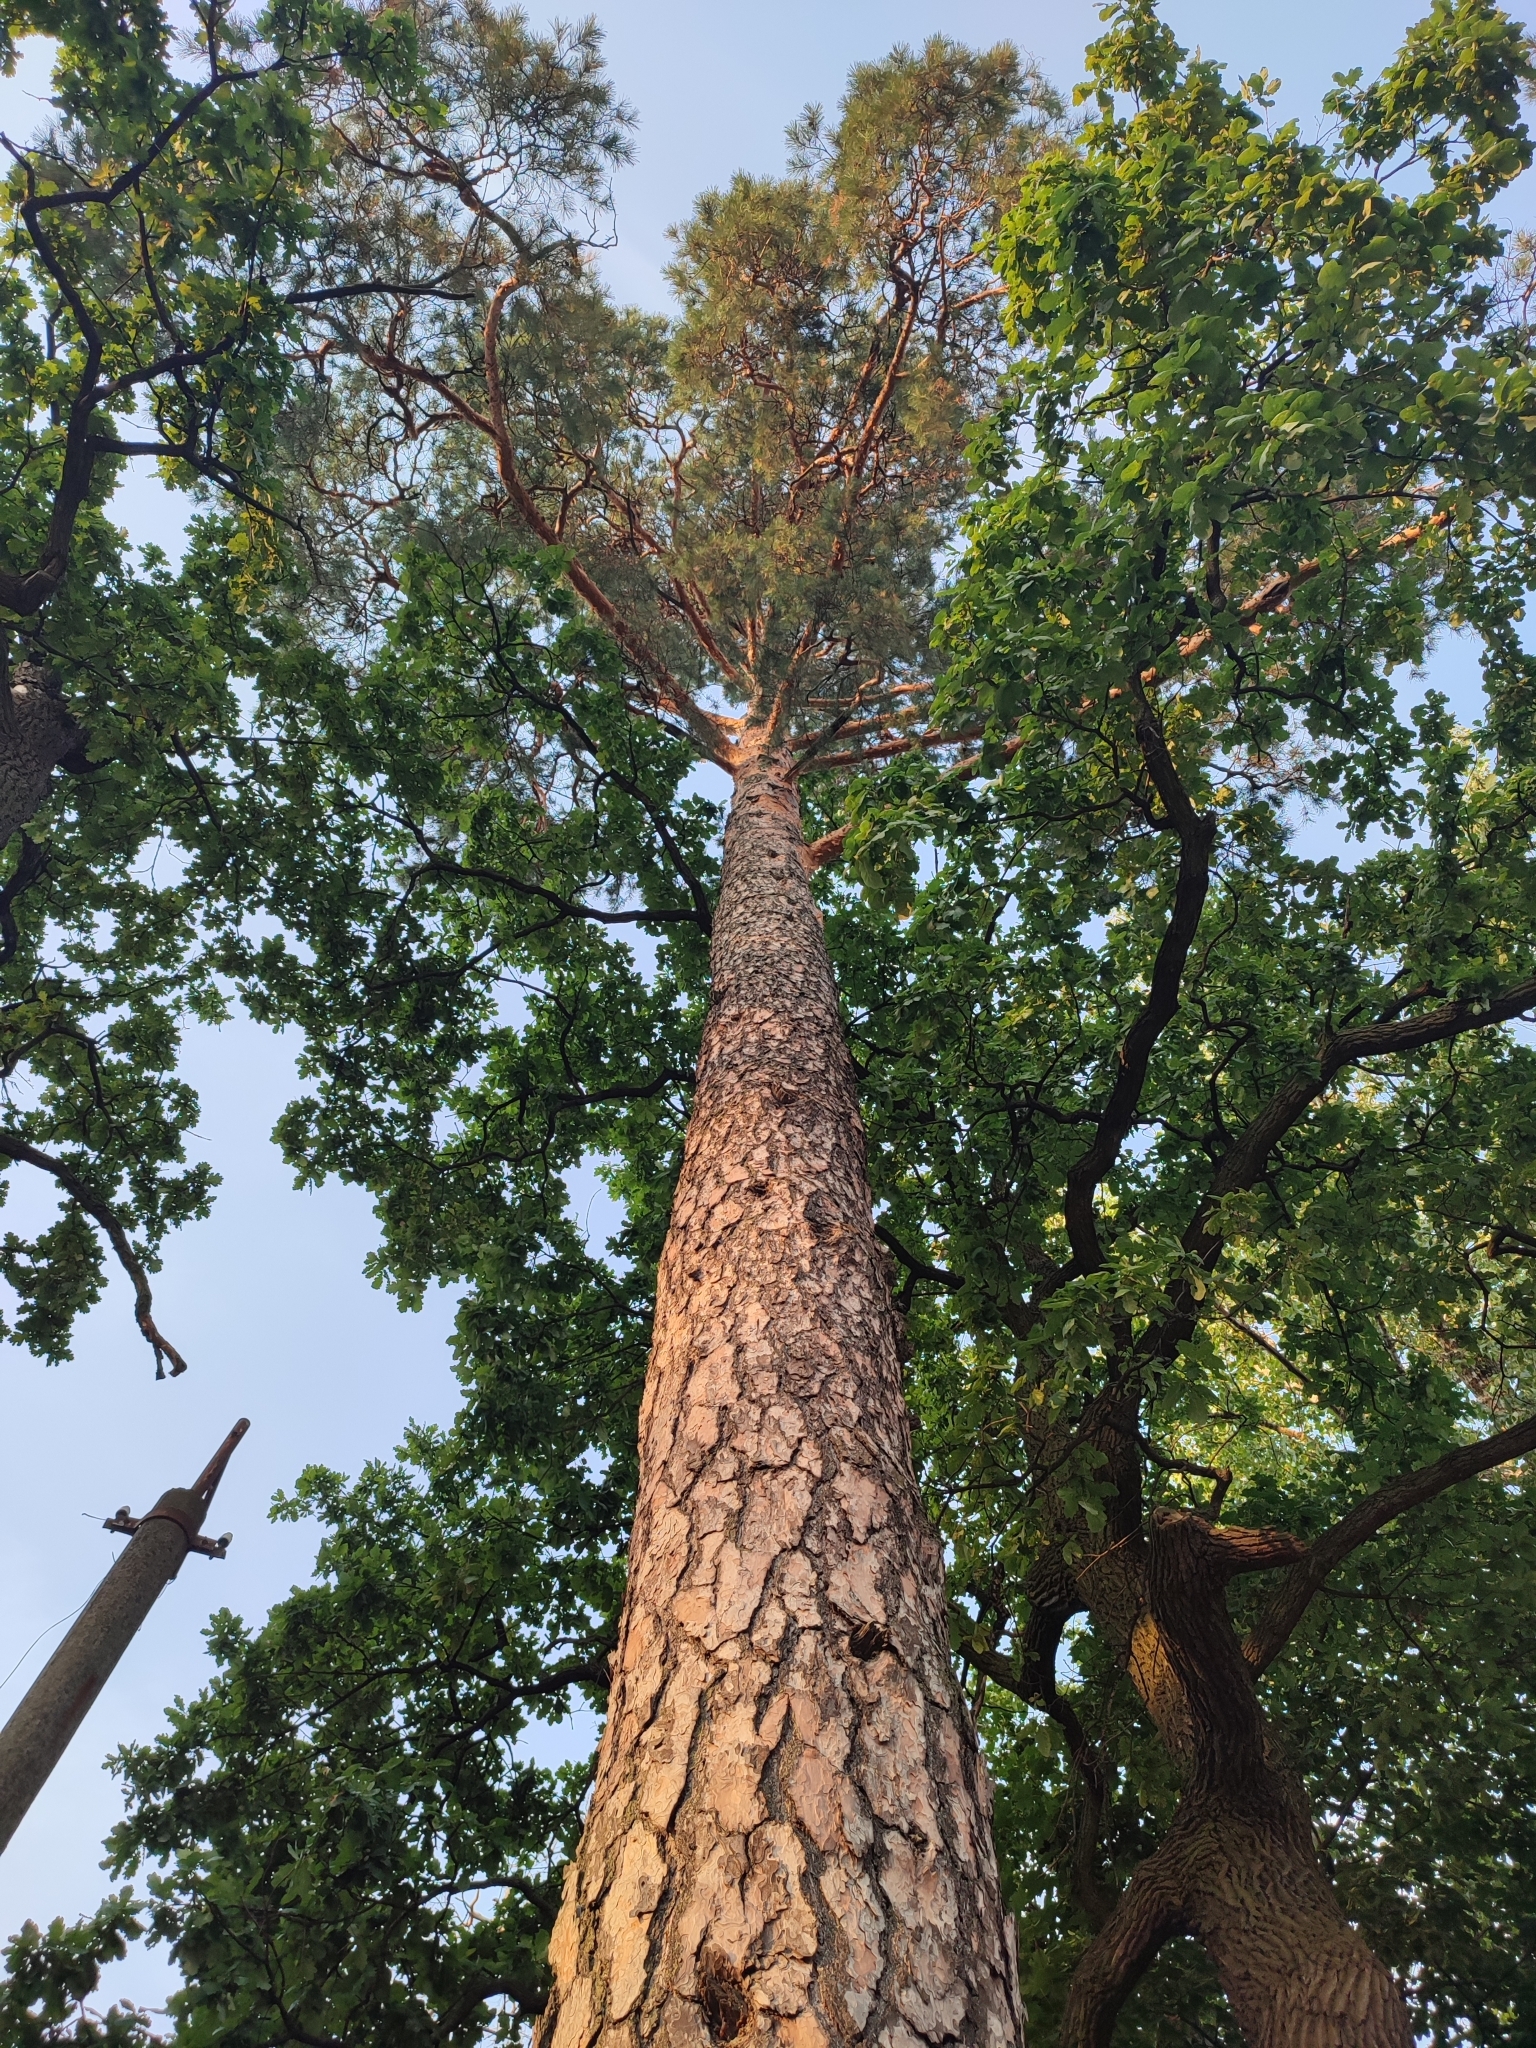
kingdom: Plantae
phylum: Tracheophyta
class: Pinopsida
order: Pinales
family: Pinaceae
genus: Pinus
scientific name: Pinus sylvestris
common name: Scots pine
